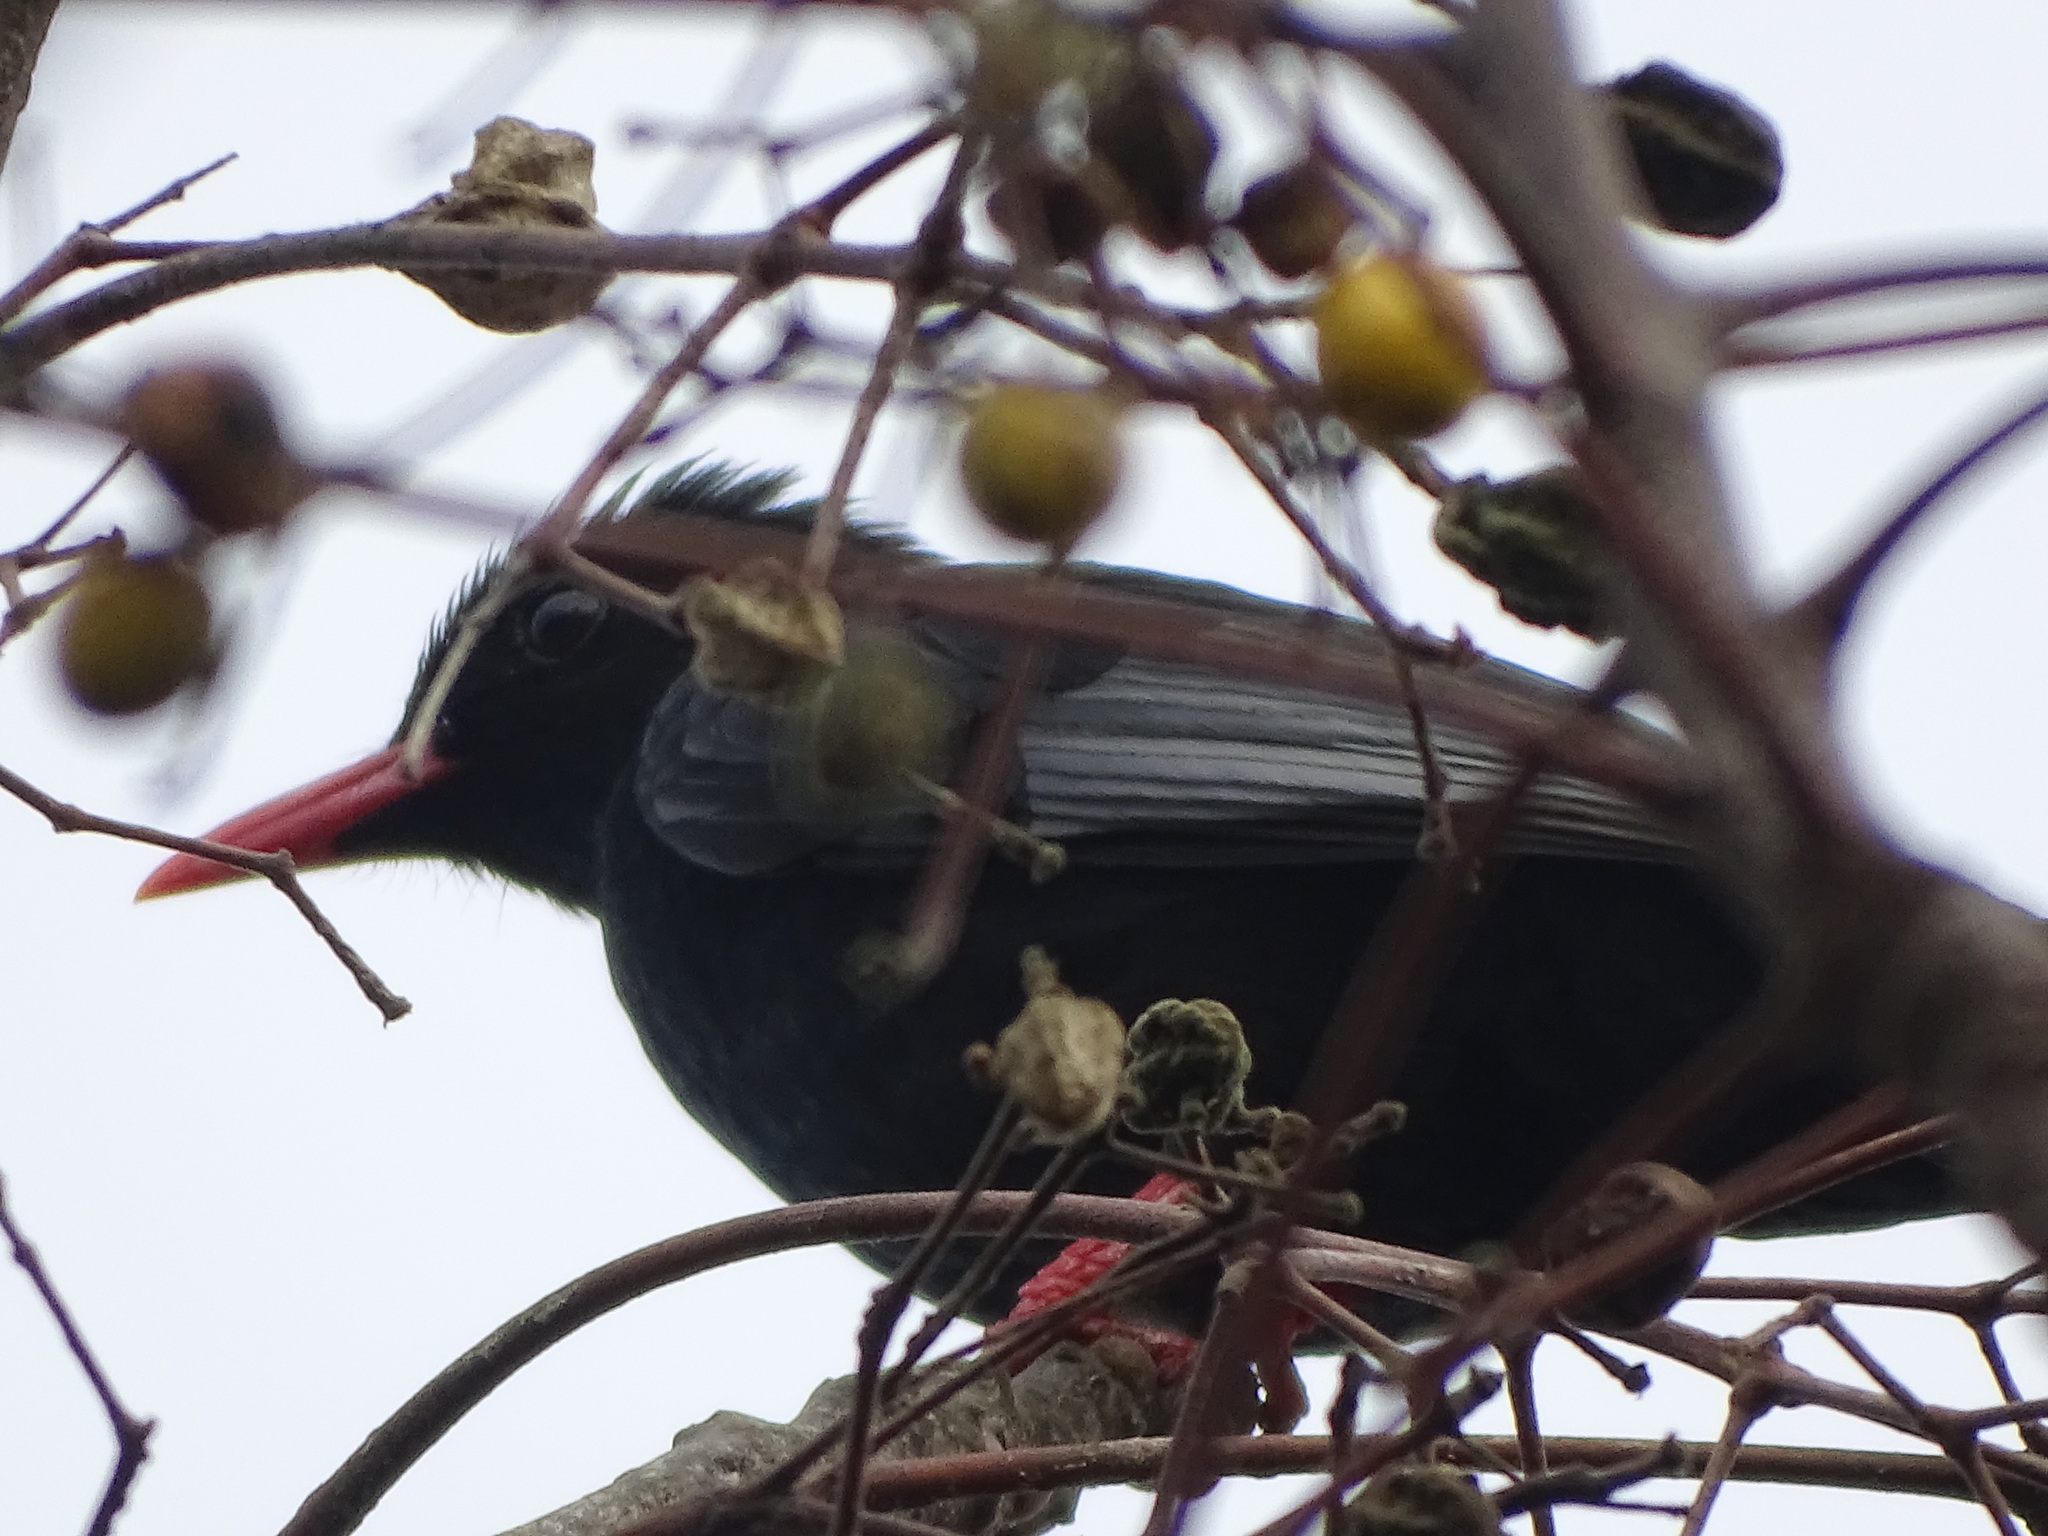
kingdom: Animalia
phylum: Chordata
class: Aves
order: Passeriformes
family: Pycnonotidae
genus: Hypsipetes
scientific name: Hypsipetes leucocephalus
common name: Black bulbul
